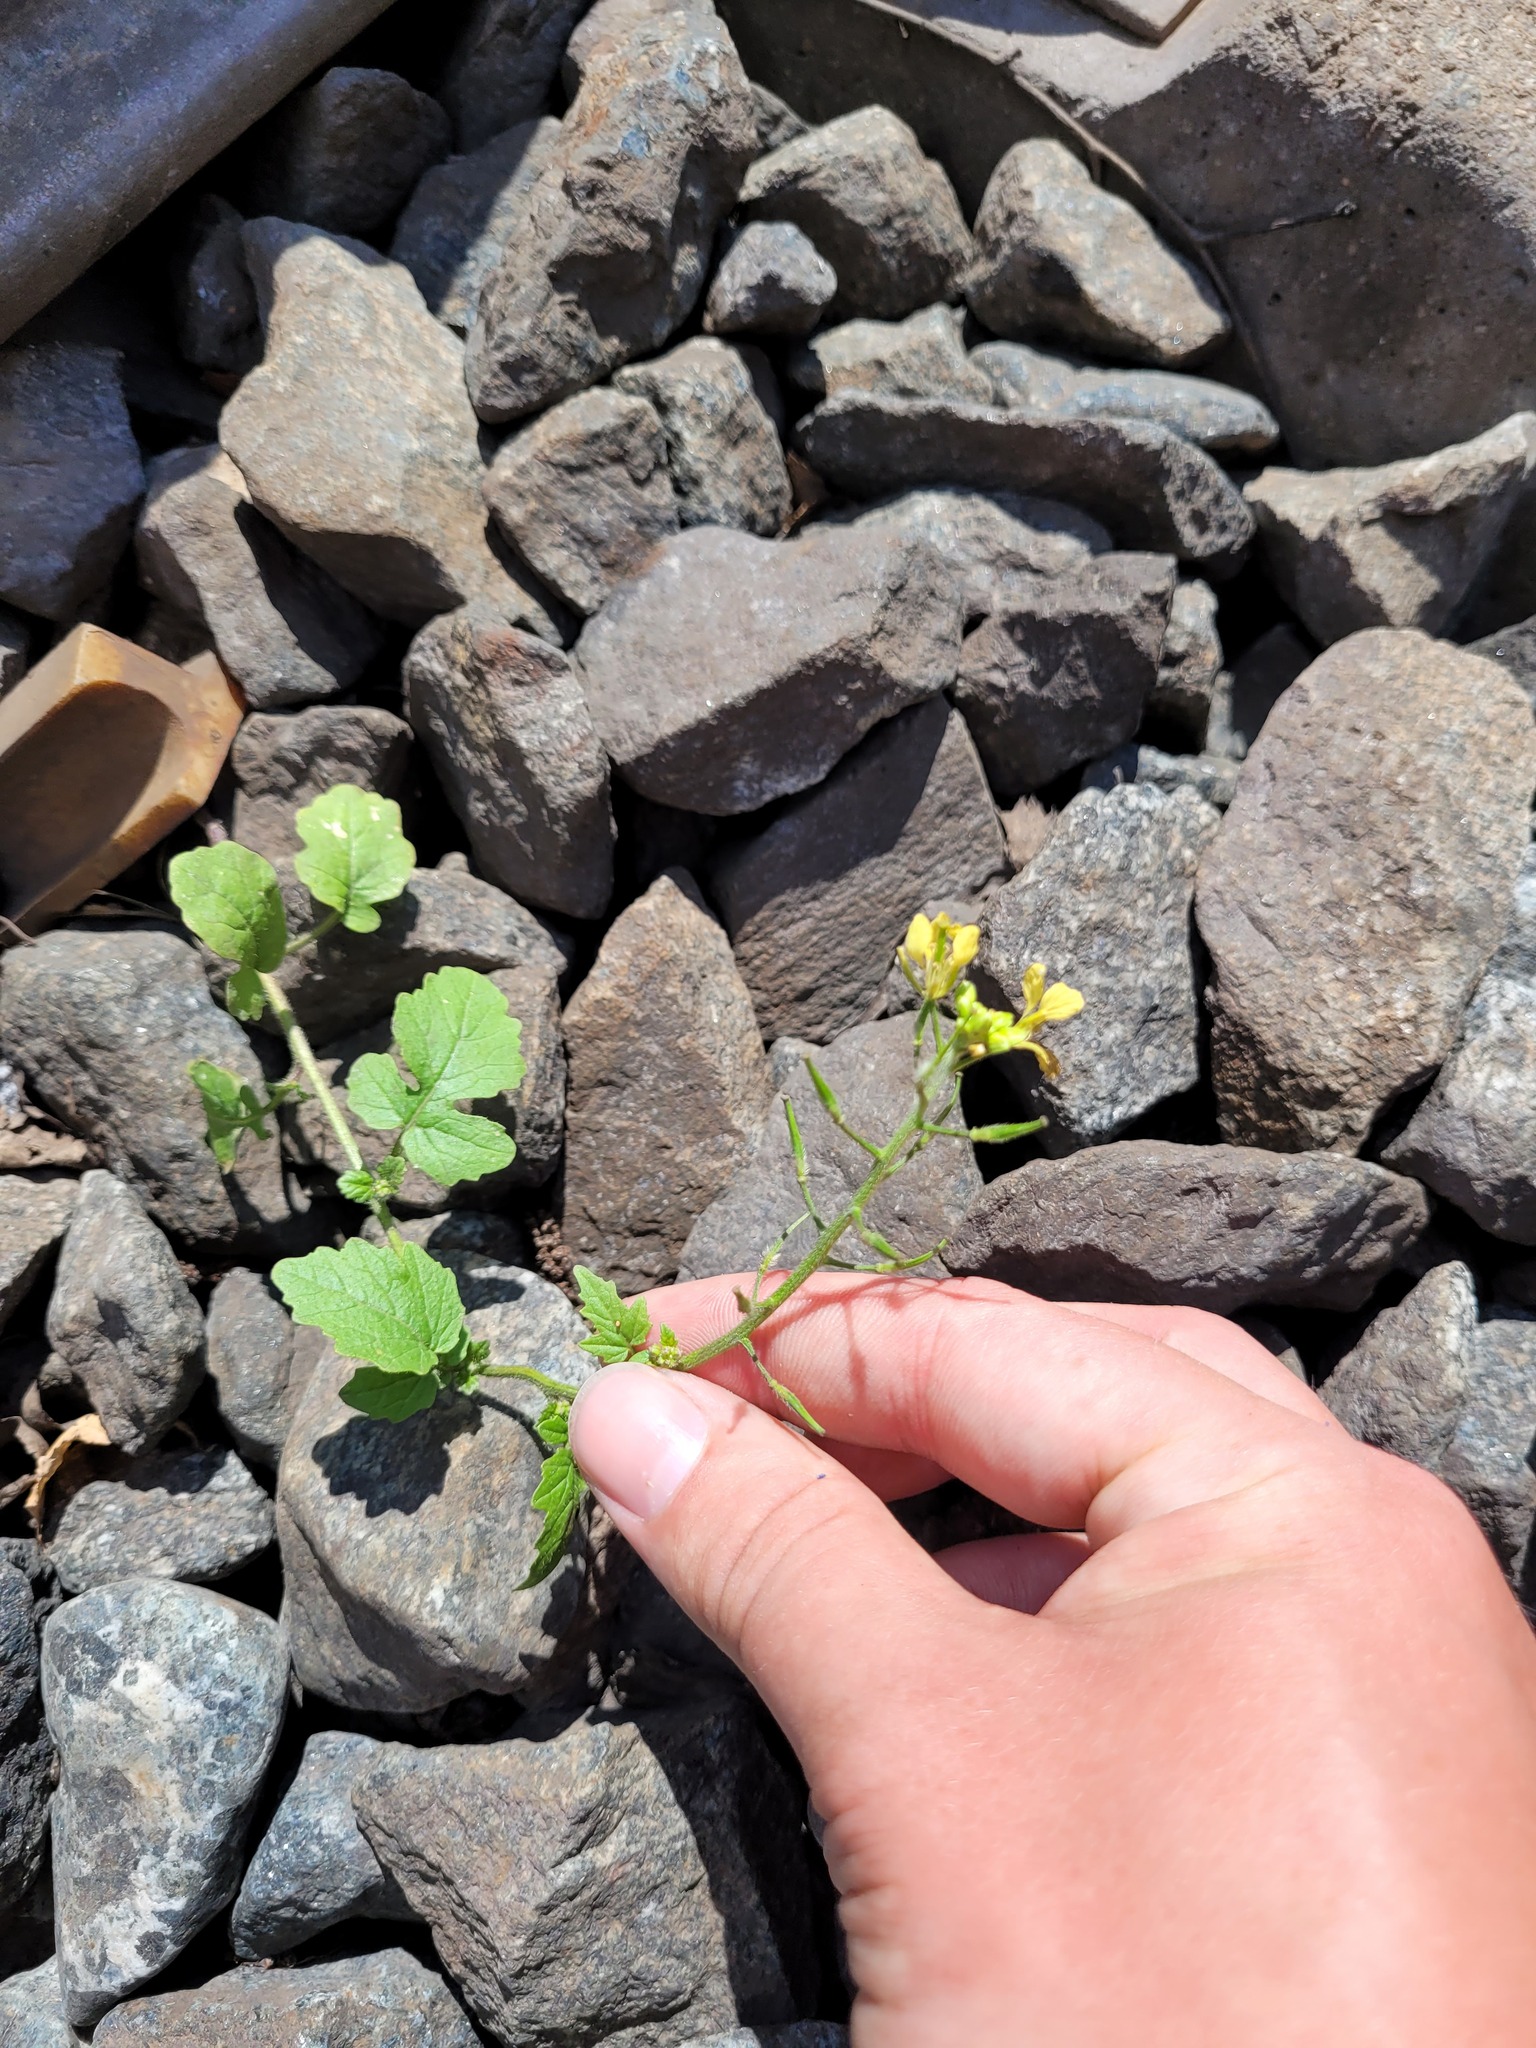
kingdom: Plantae
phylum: Tracheophyta
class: Magnoliopsida
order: Brassicales
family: Brassicaceae
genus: Sinapis
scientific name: Sinapis alba
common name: White mustard
